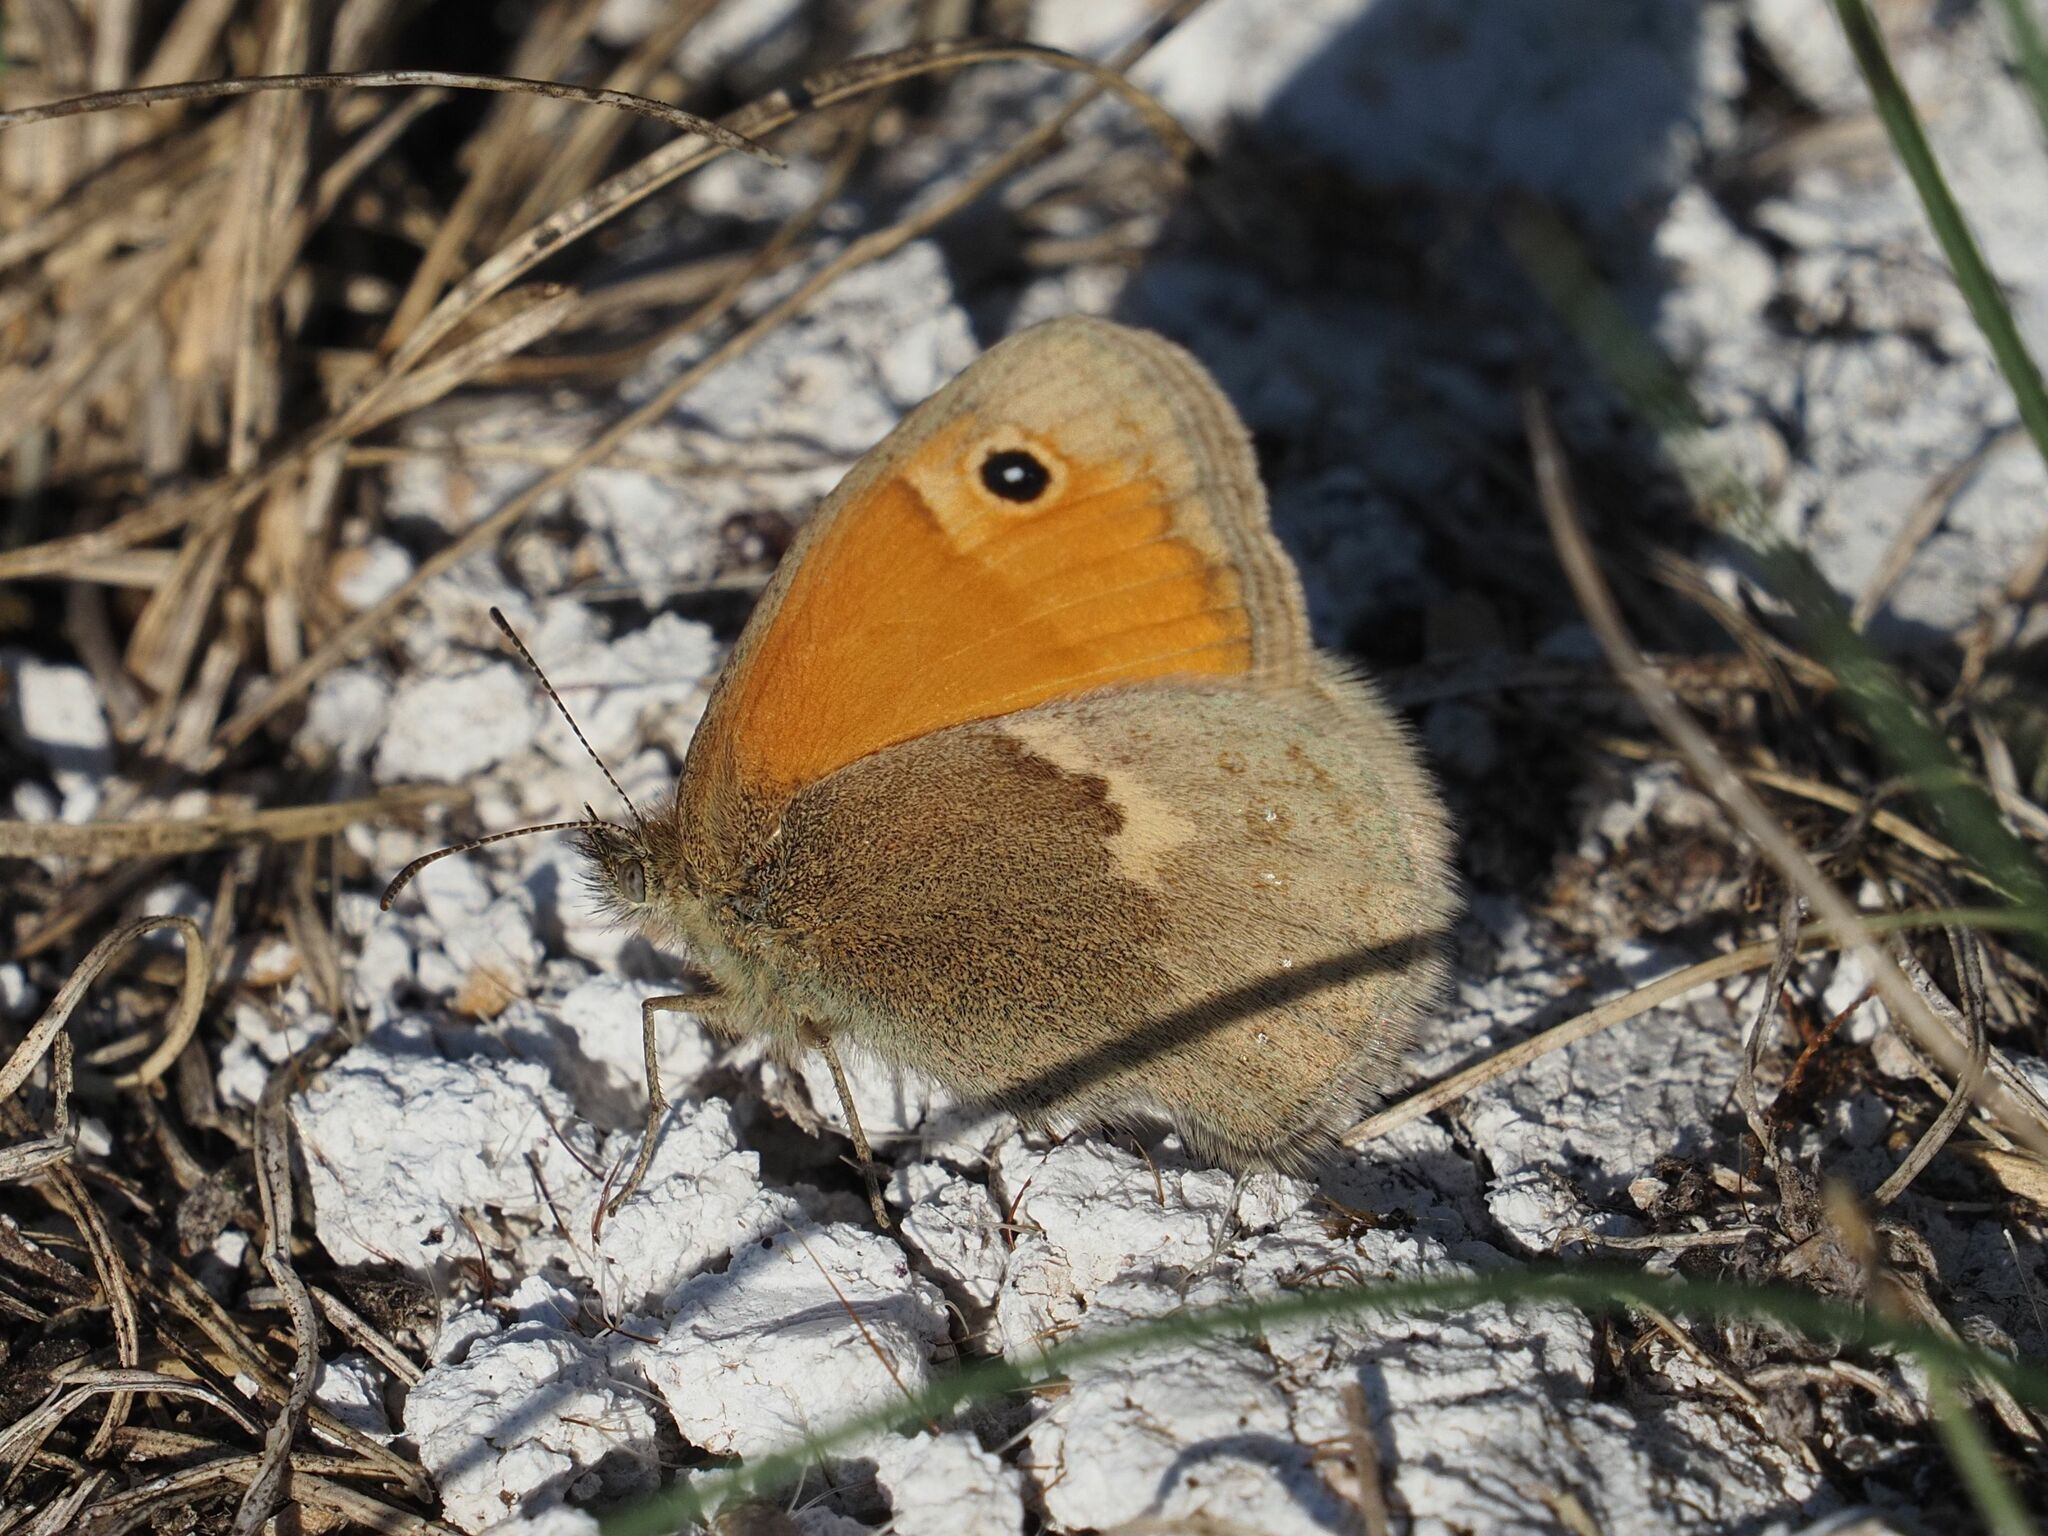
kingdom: Animalia
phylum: Arthropoda
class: Insecta
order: Lepidoptera
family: Nymphalidae
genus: Coenonympha
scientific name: Coenonympha pamphilus
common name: Small heath
